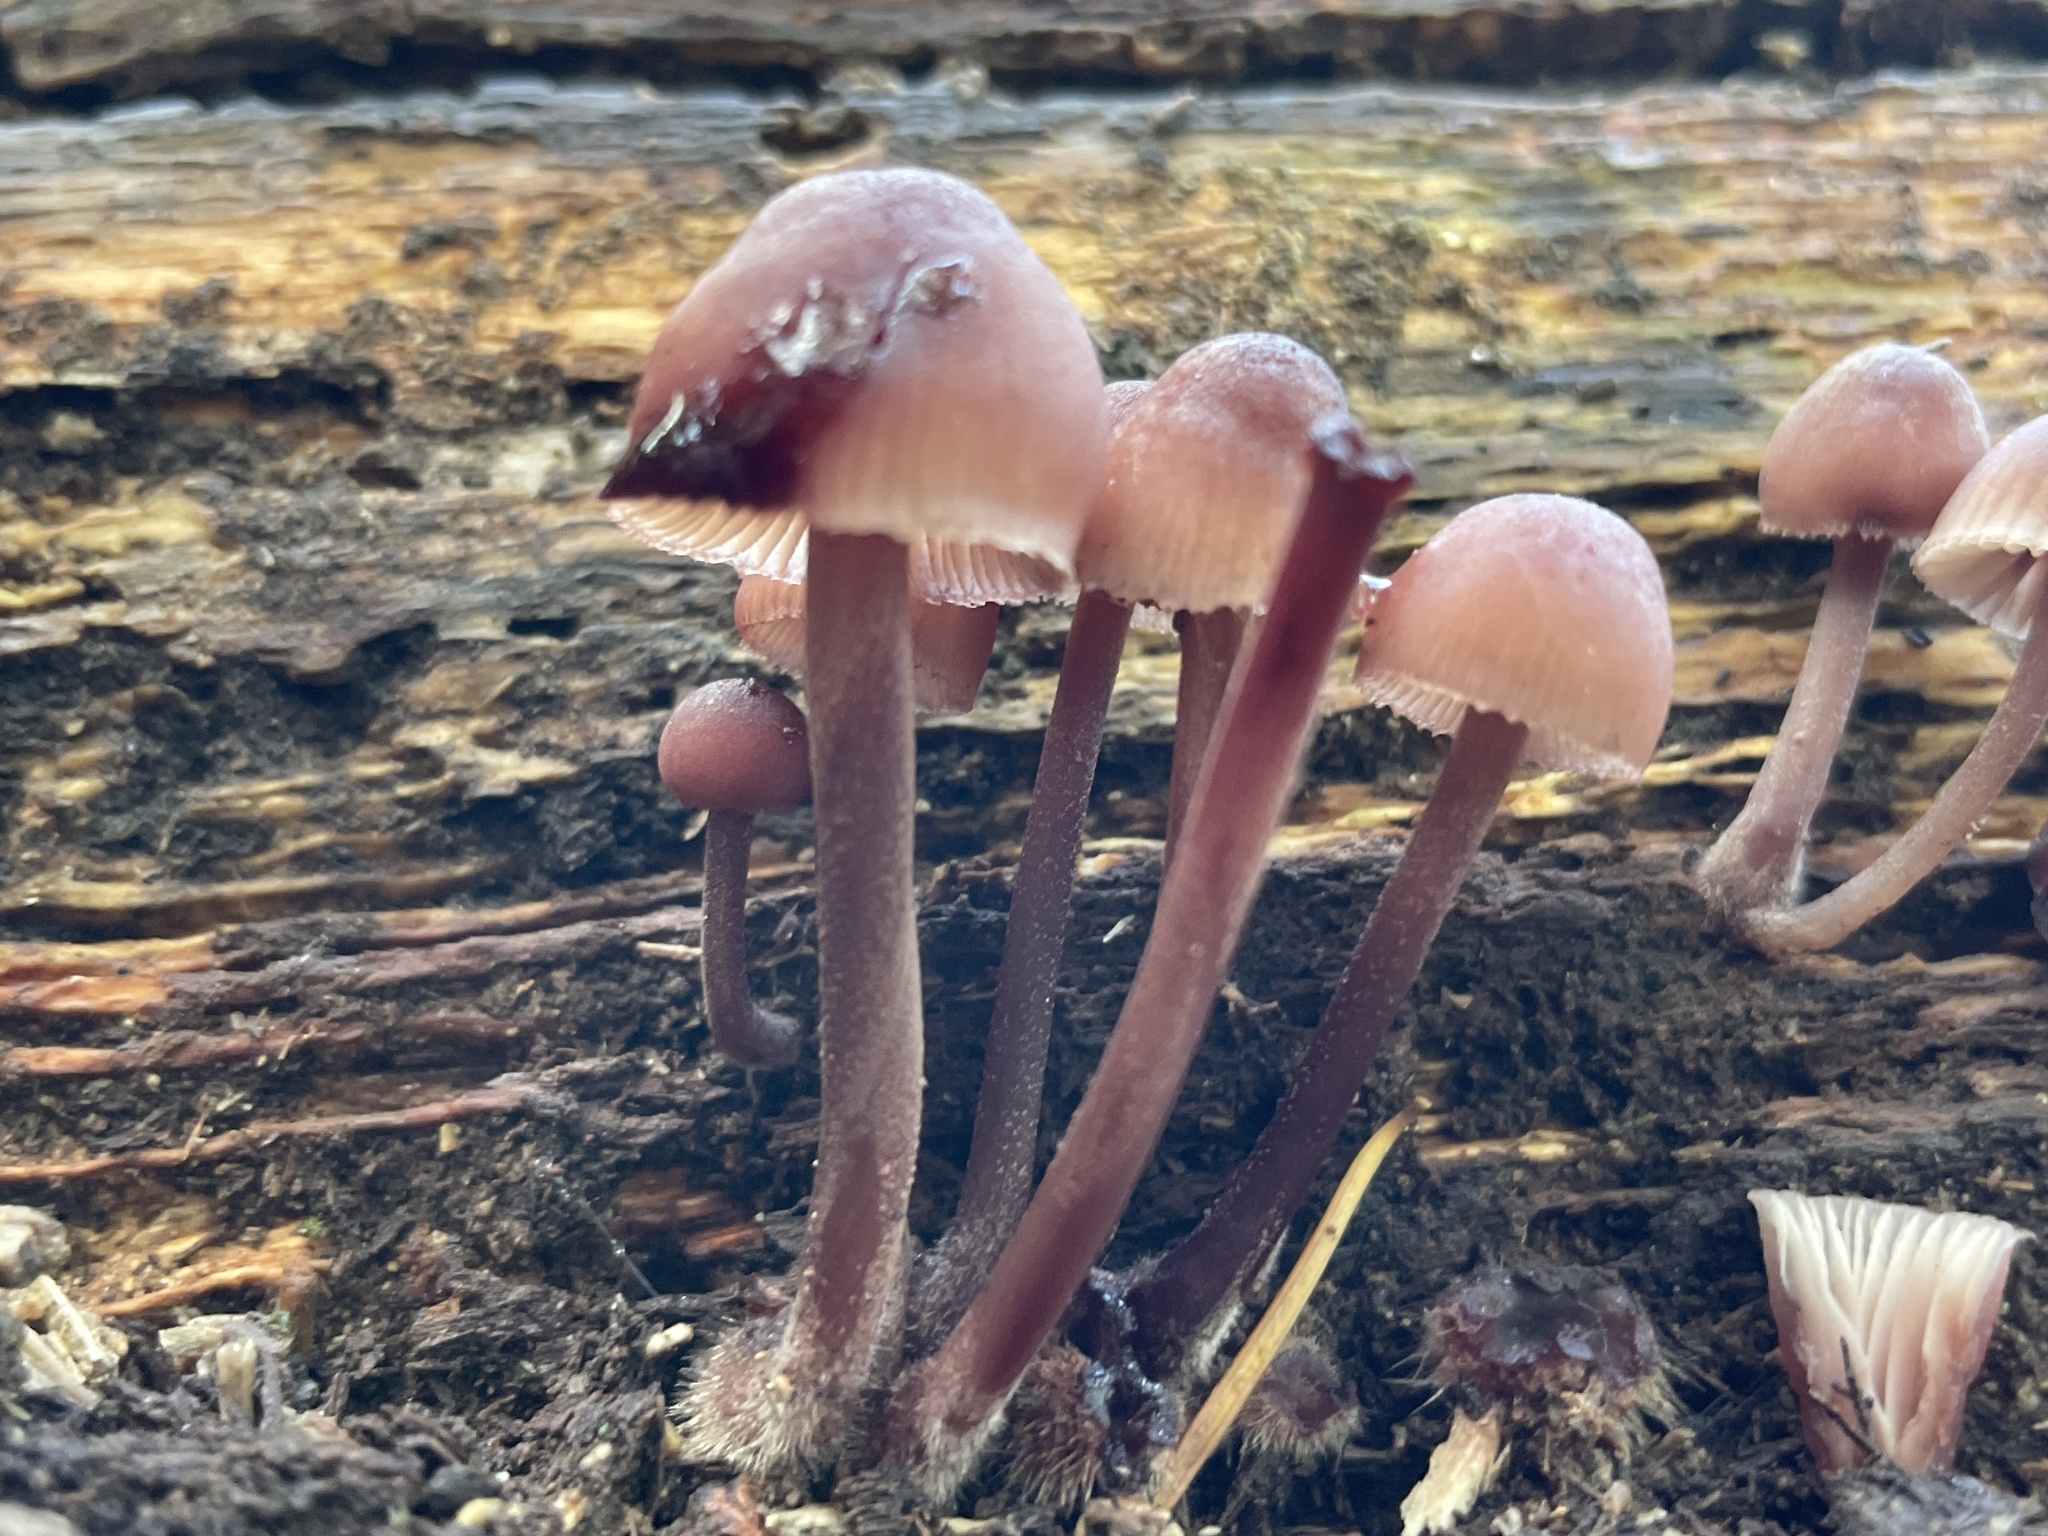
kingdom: Fungi
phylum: Basidiomycota
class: Agaricomycetes
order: Agaricales
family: Mycenaceae
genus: Mycena
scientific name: Mycena haematopus
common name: Burgundydrop bonnet
